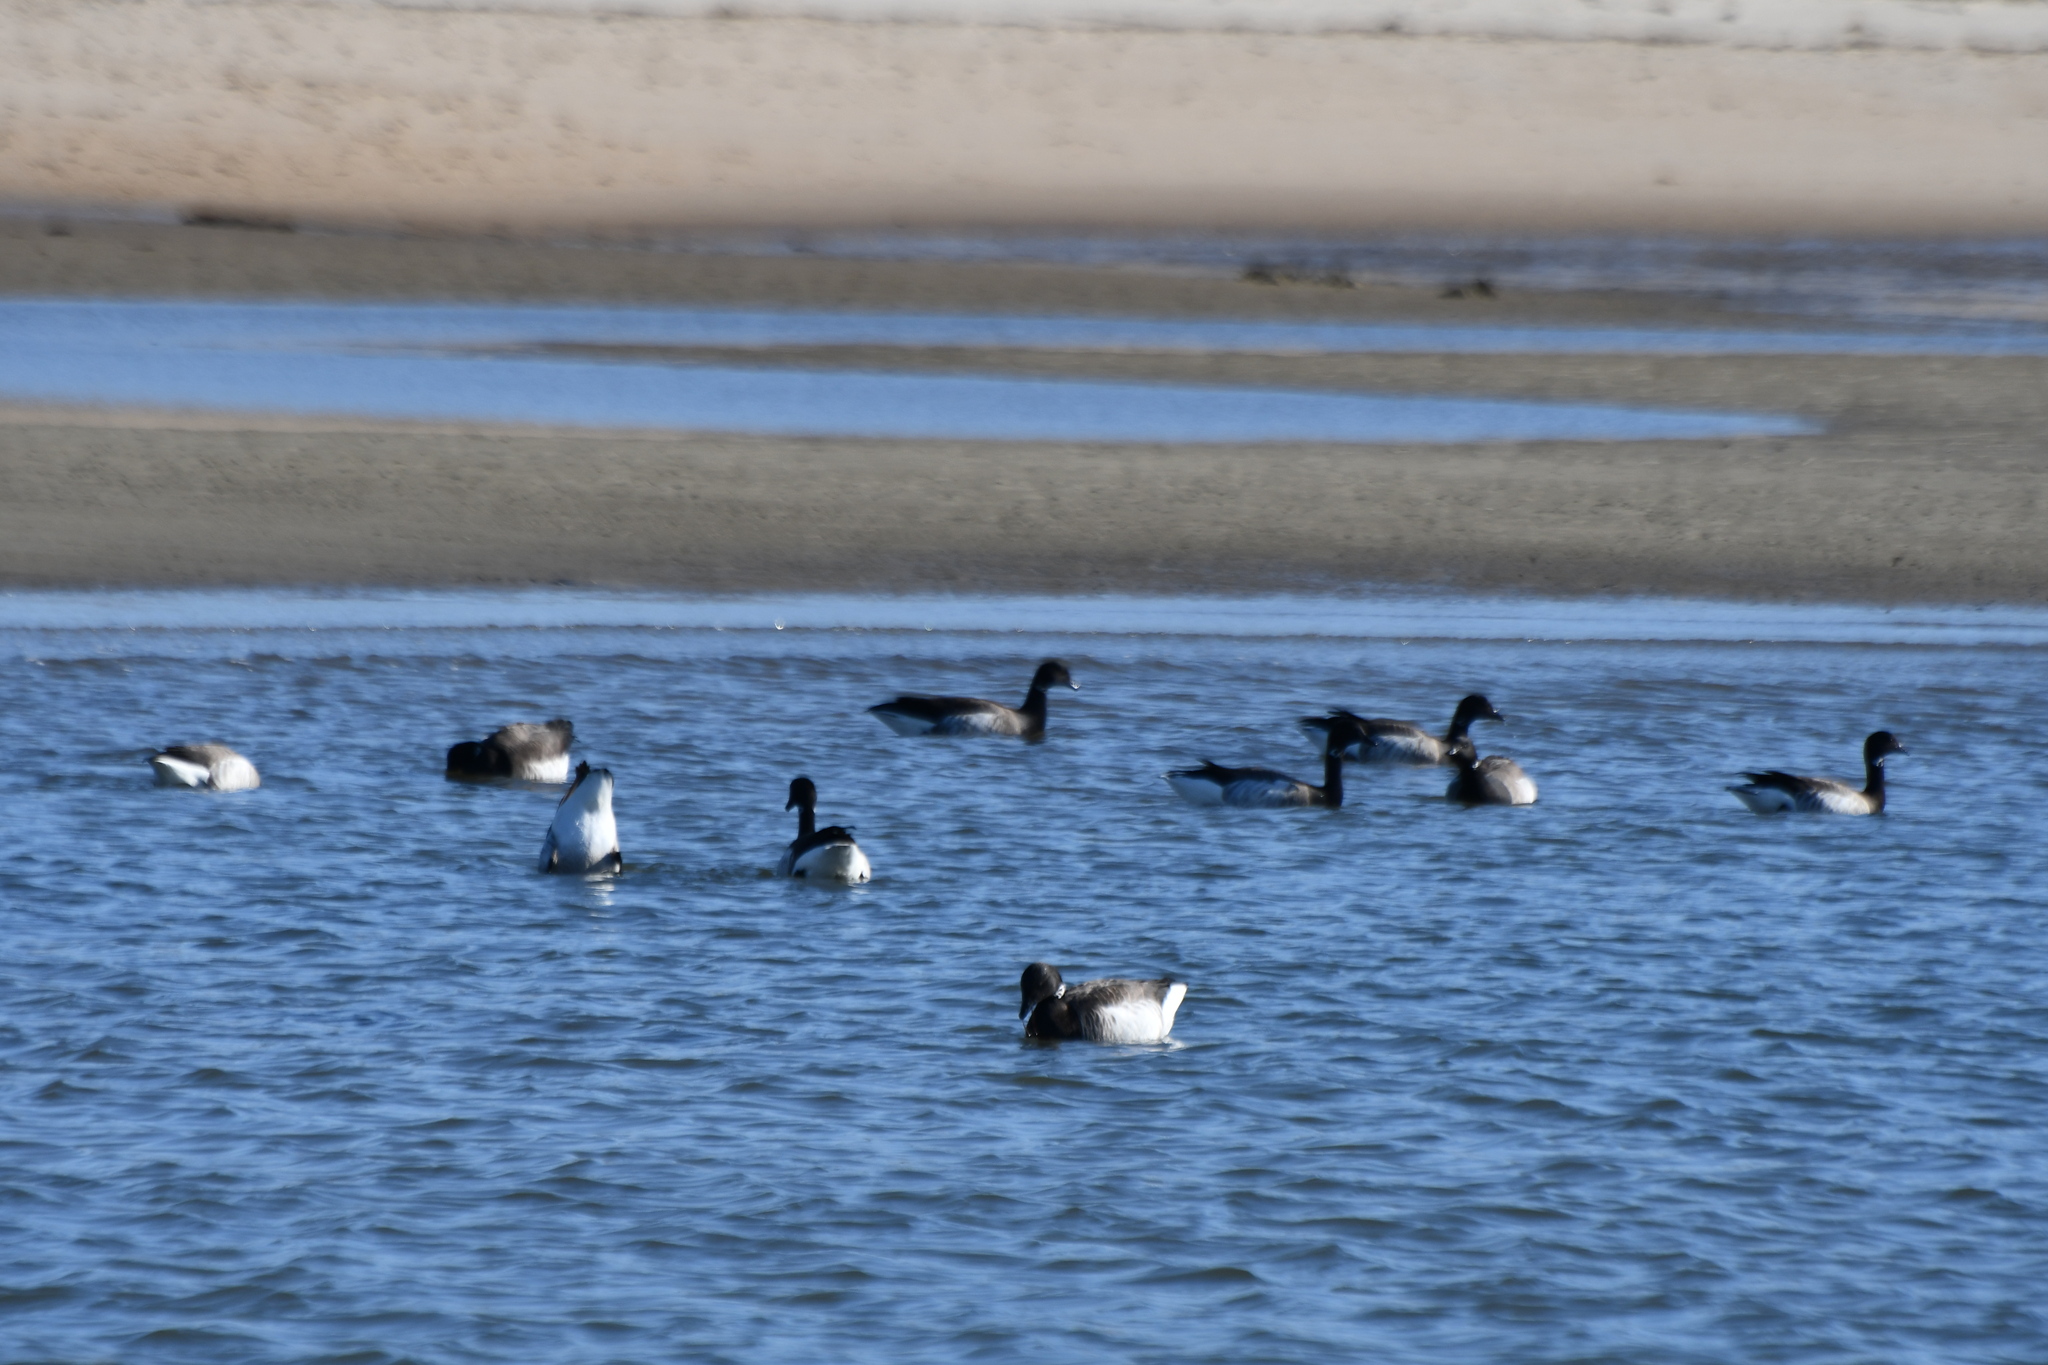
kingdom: Animalia
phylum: Chordata
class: Aves
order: Anseriformes
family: Anatidae
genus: Branta
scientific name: Branta bernicla
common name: Brant goose
